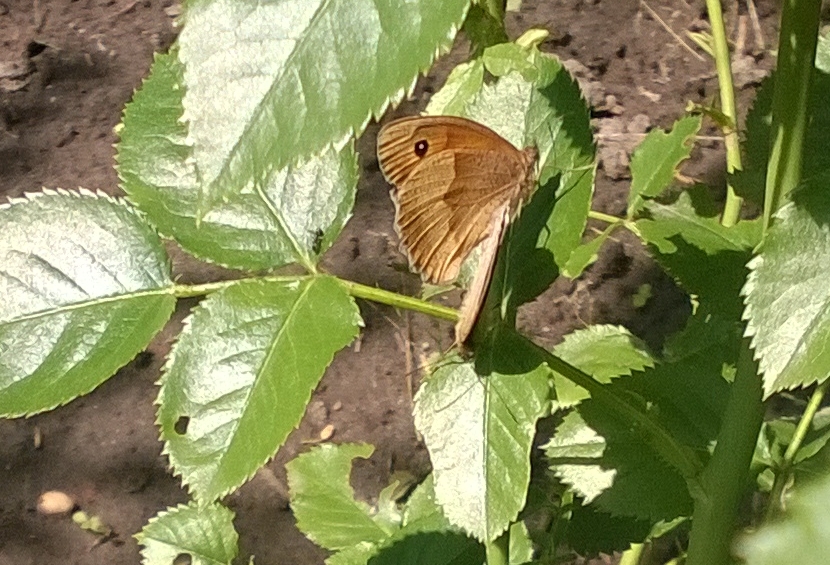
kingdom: Animalia
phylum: Arthropoda
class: Insecta
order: Lepidoptera
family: Nymphalidae
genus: Maniola
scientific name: Maniola jurtina
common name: Meadow brown
